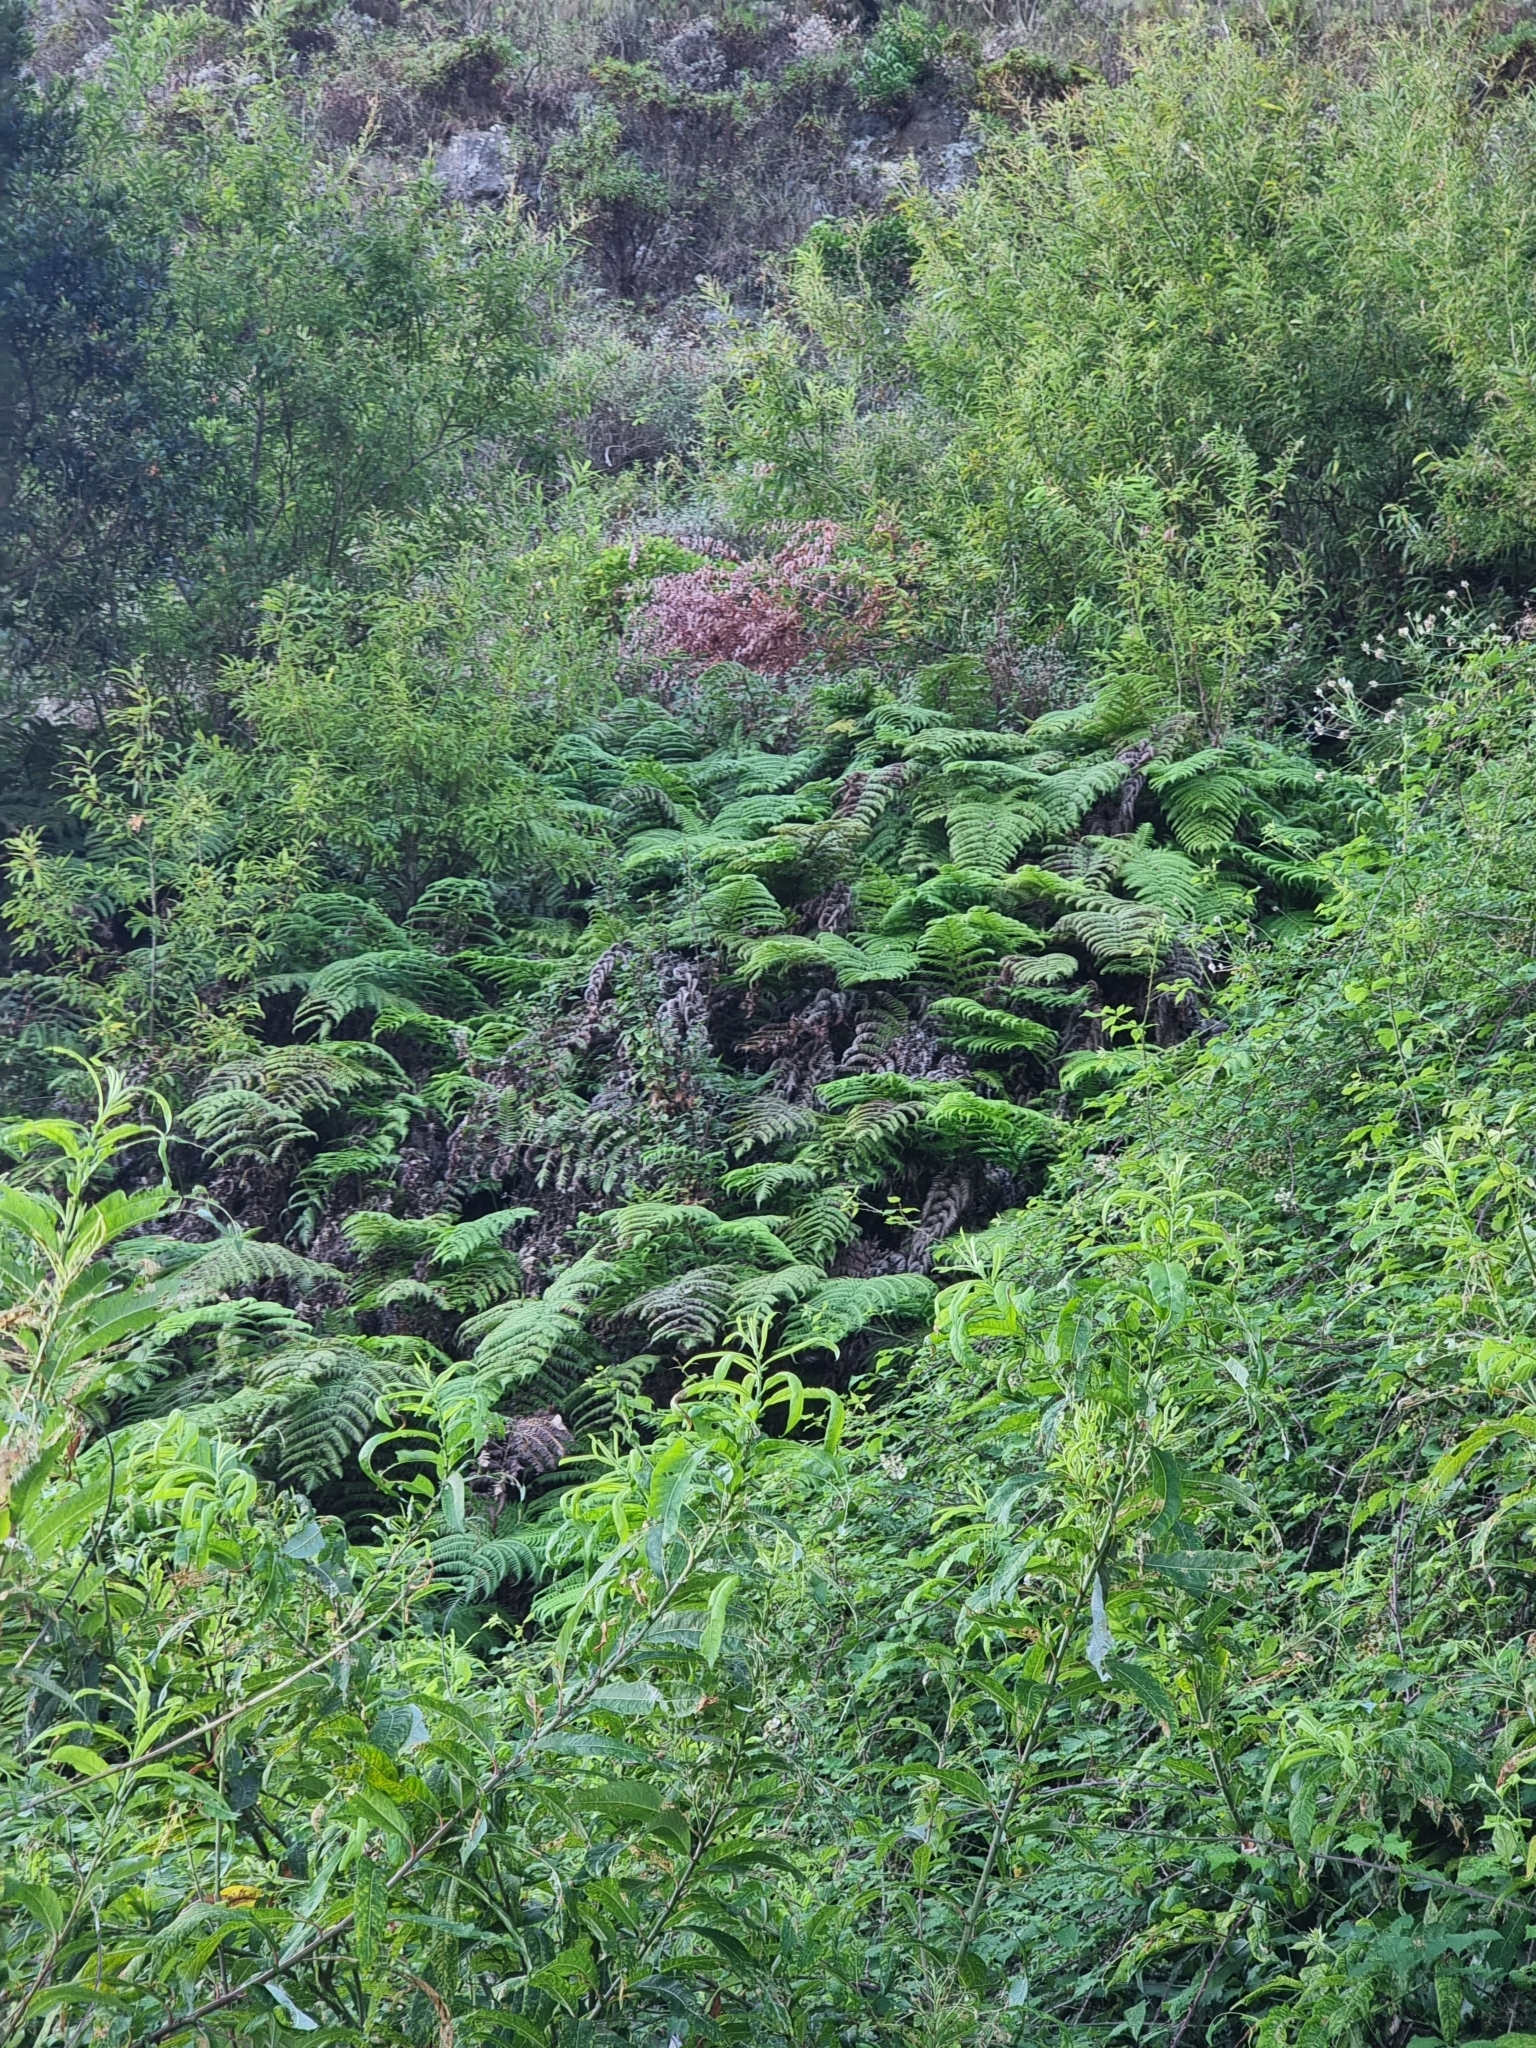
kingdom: Plantae
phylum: Tracheophyta
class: Polypodiopsida
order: Polypodiales
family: Blechnaceae
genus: Woodwardia
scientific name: Woodwardia radicans
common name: Rooting chainfern
